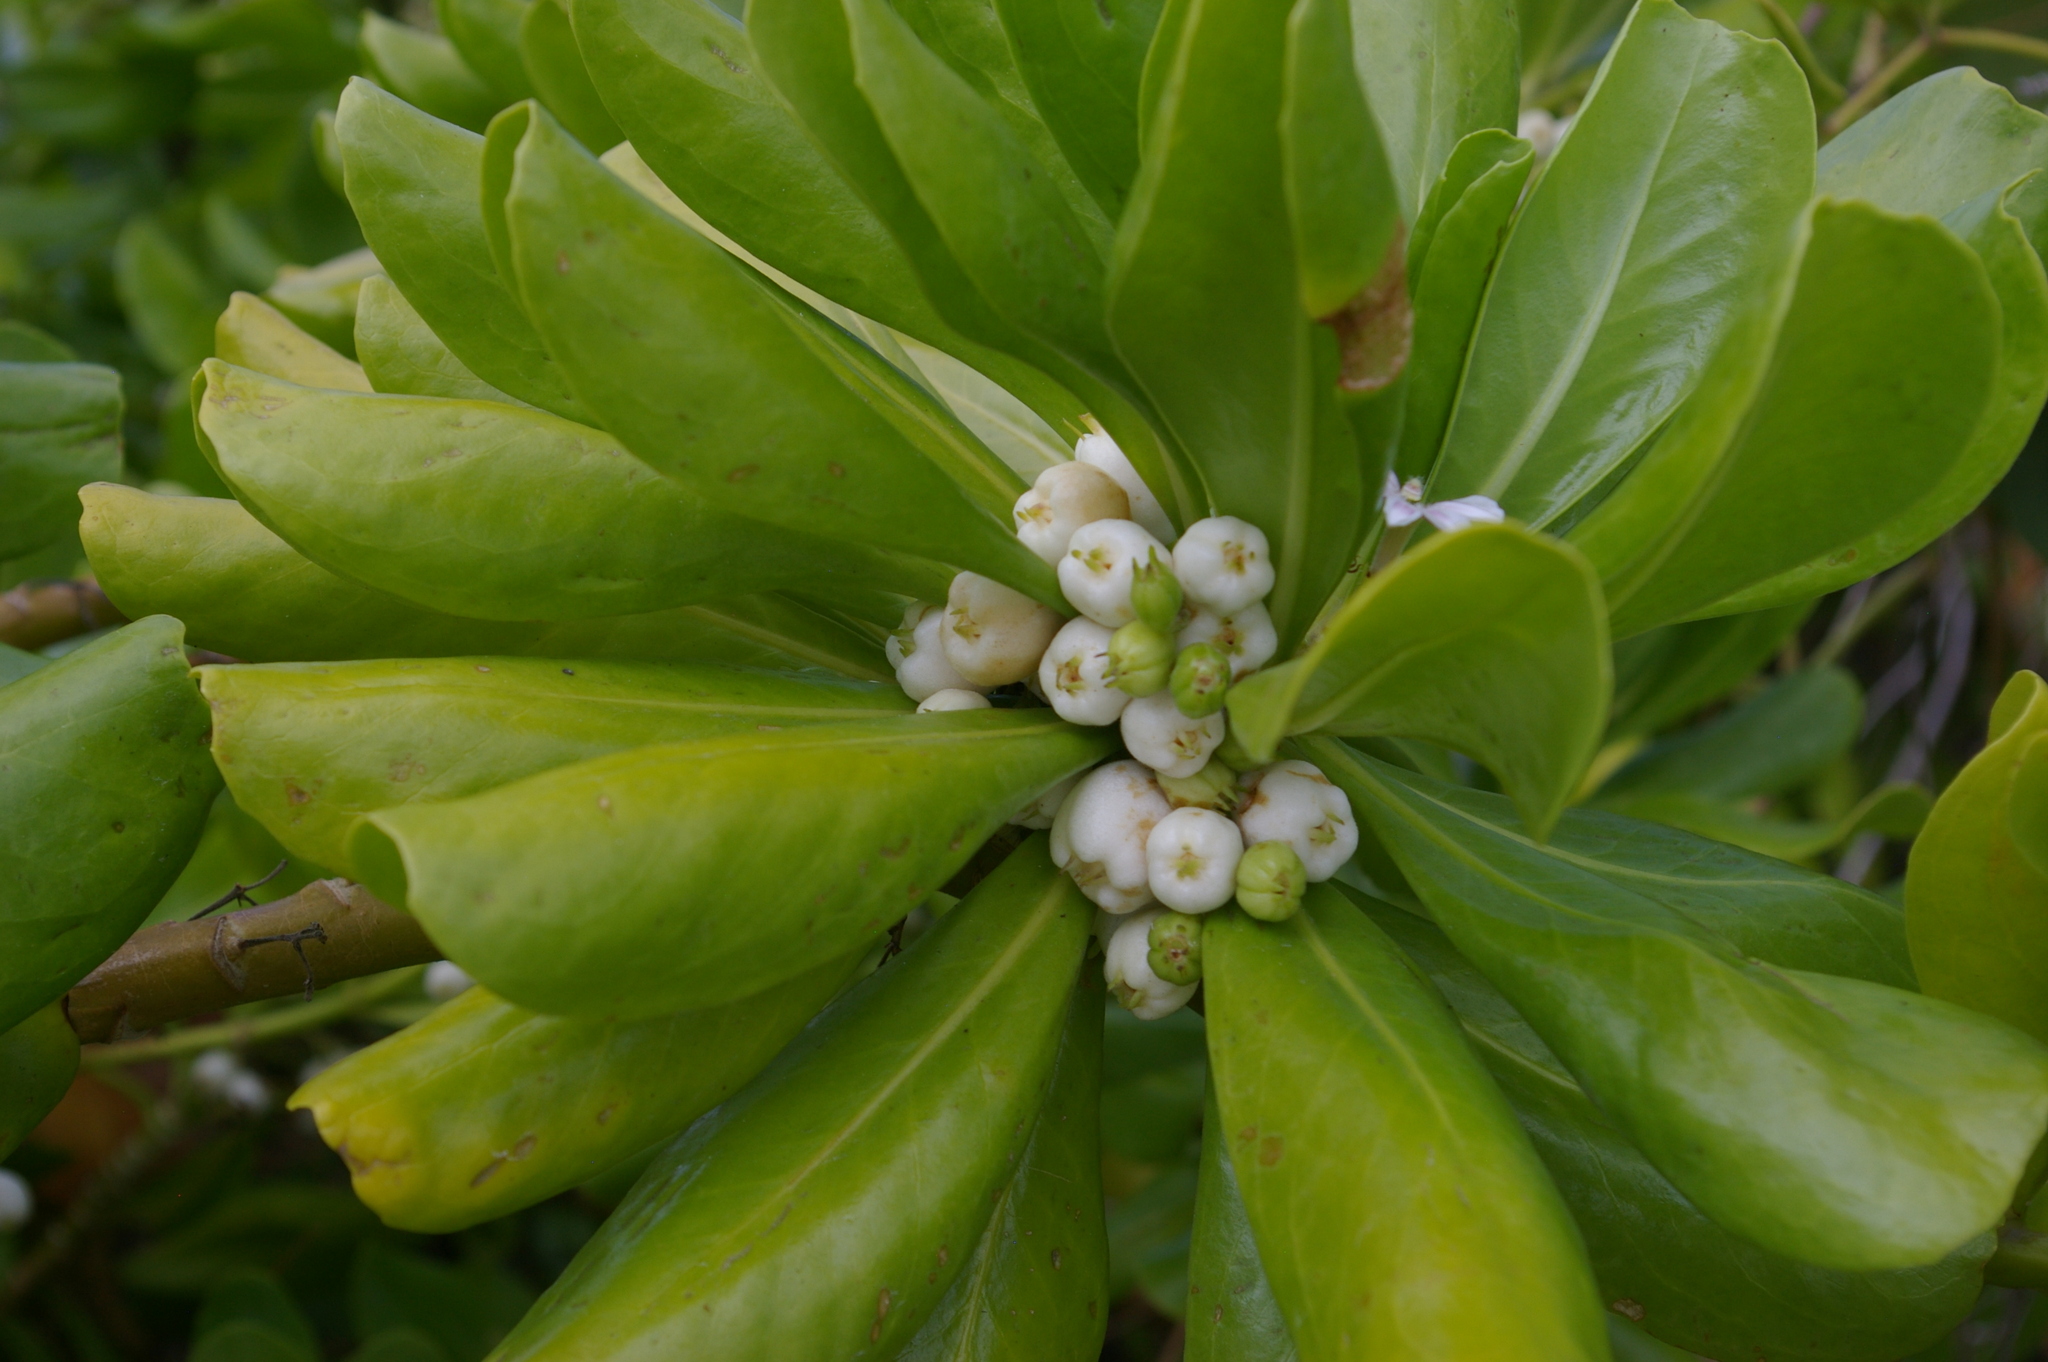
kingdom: Plantae
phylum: Tracheophyta
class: Magnoliopsida
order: Asterales
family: Goodeniaceae
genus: Scaevola
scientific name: Scaevola taccada
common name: Sea lettucetree
